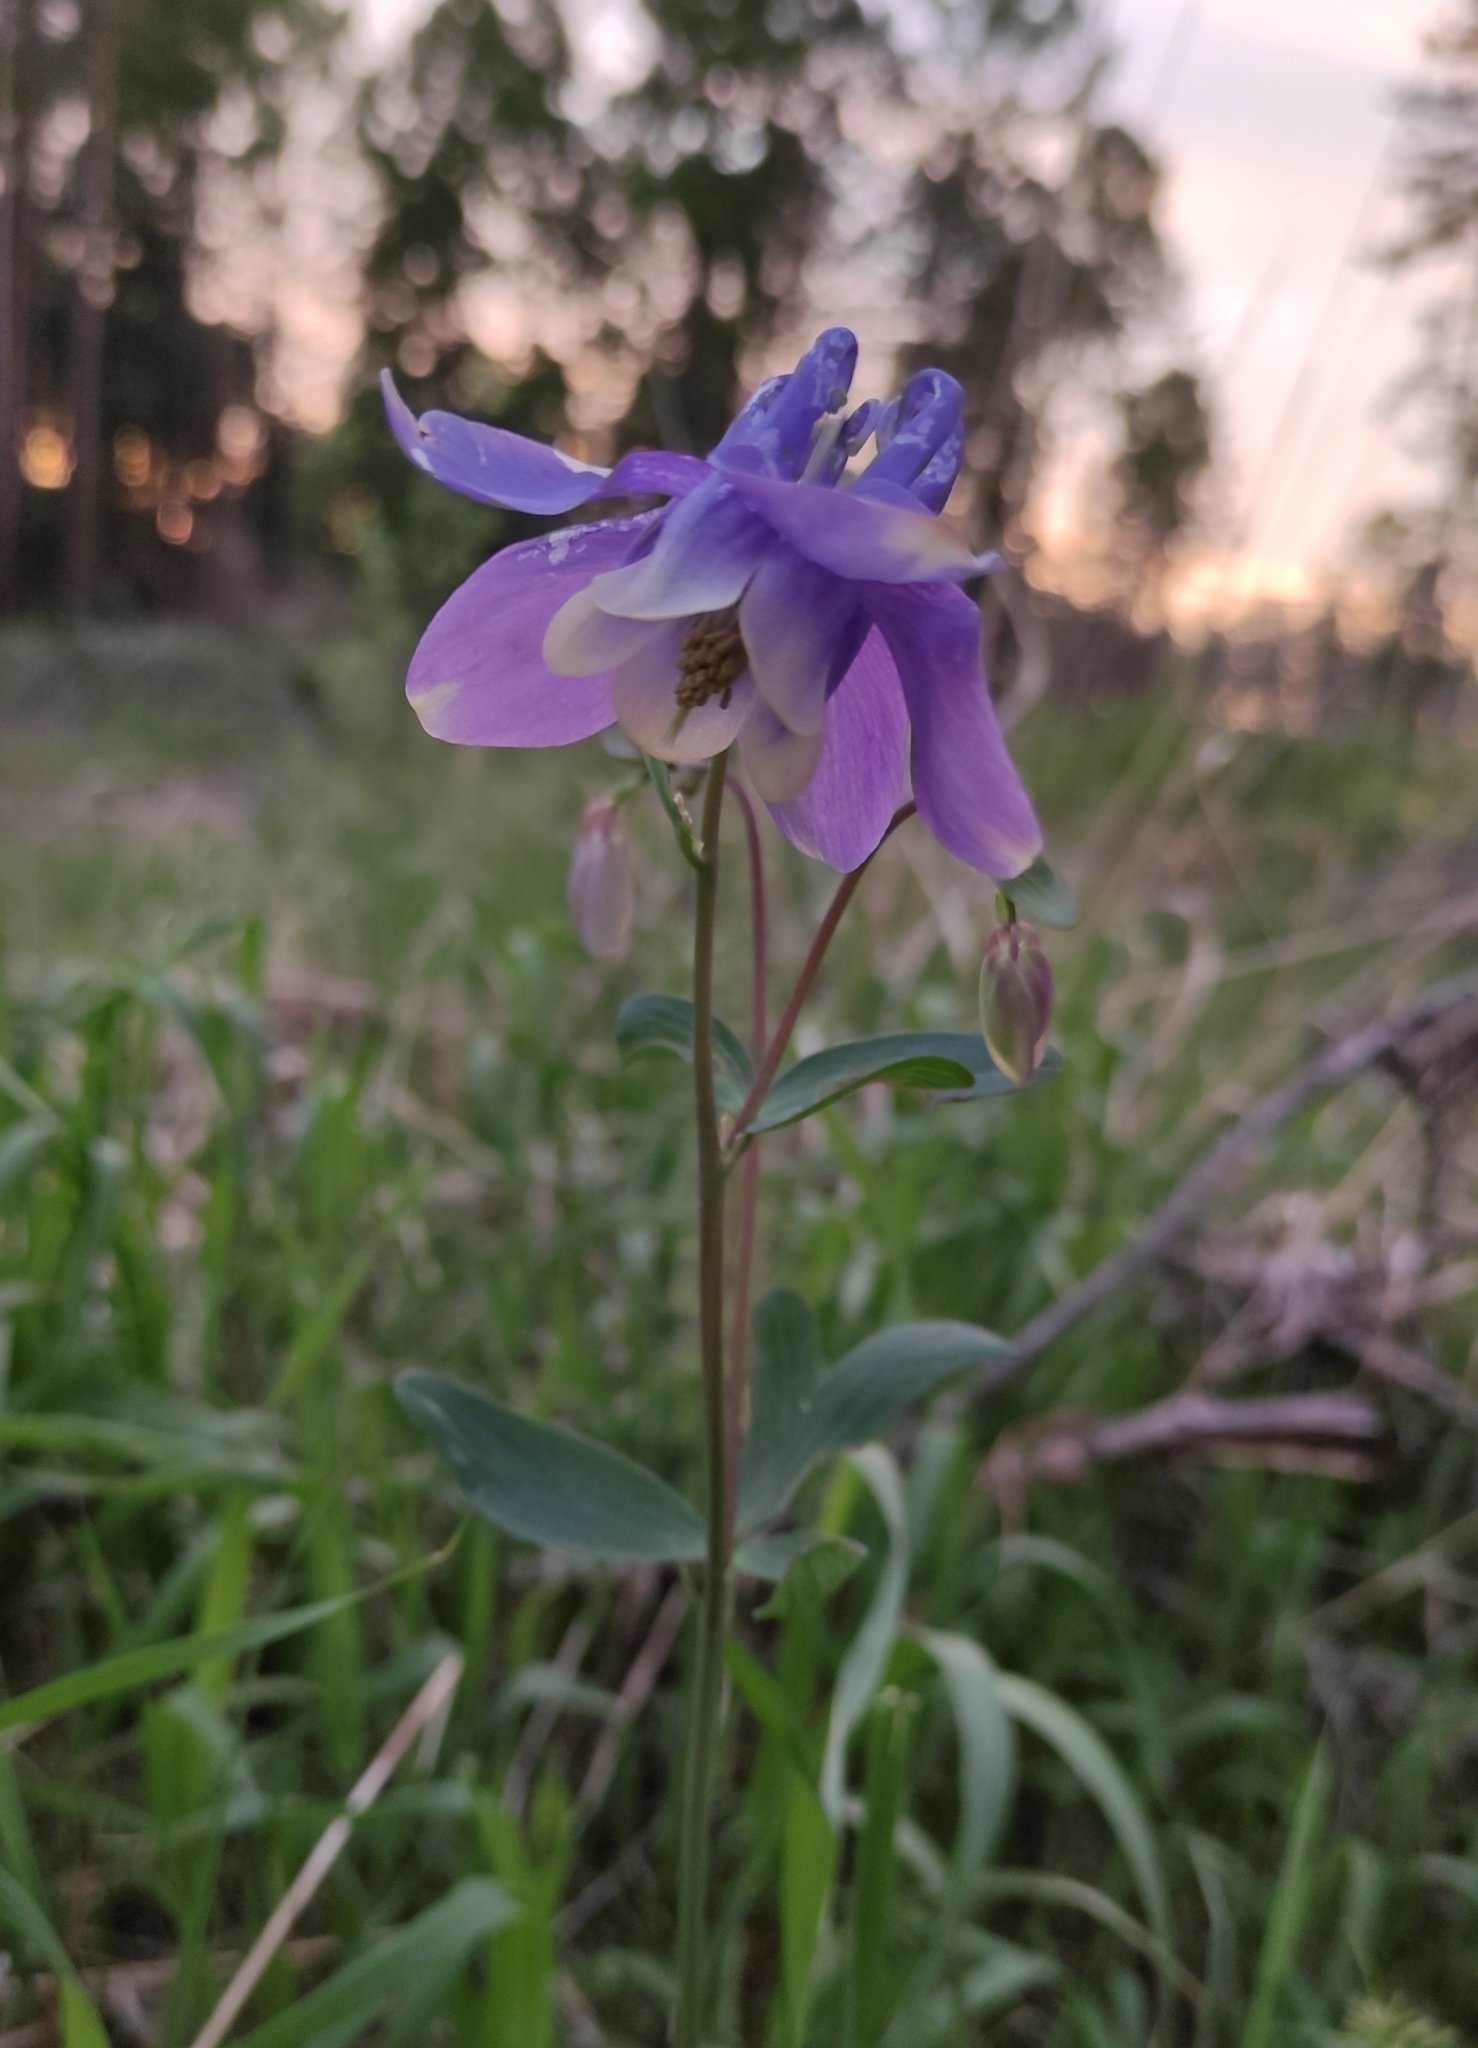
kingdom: Plantae
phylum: Tracheophyta
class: Magnoliopsida
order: Ranunculales
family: Ranunculaceae
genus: Aquilegia
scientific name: Aquilegia sibirica
